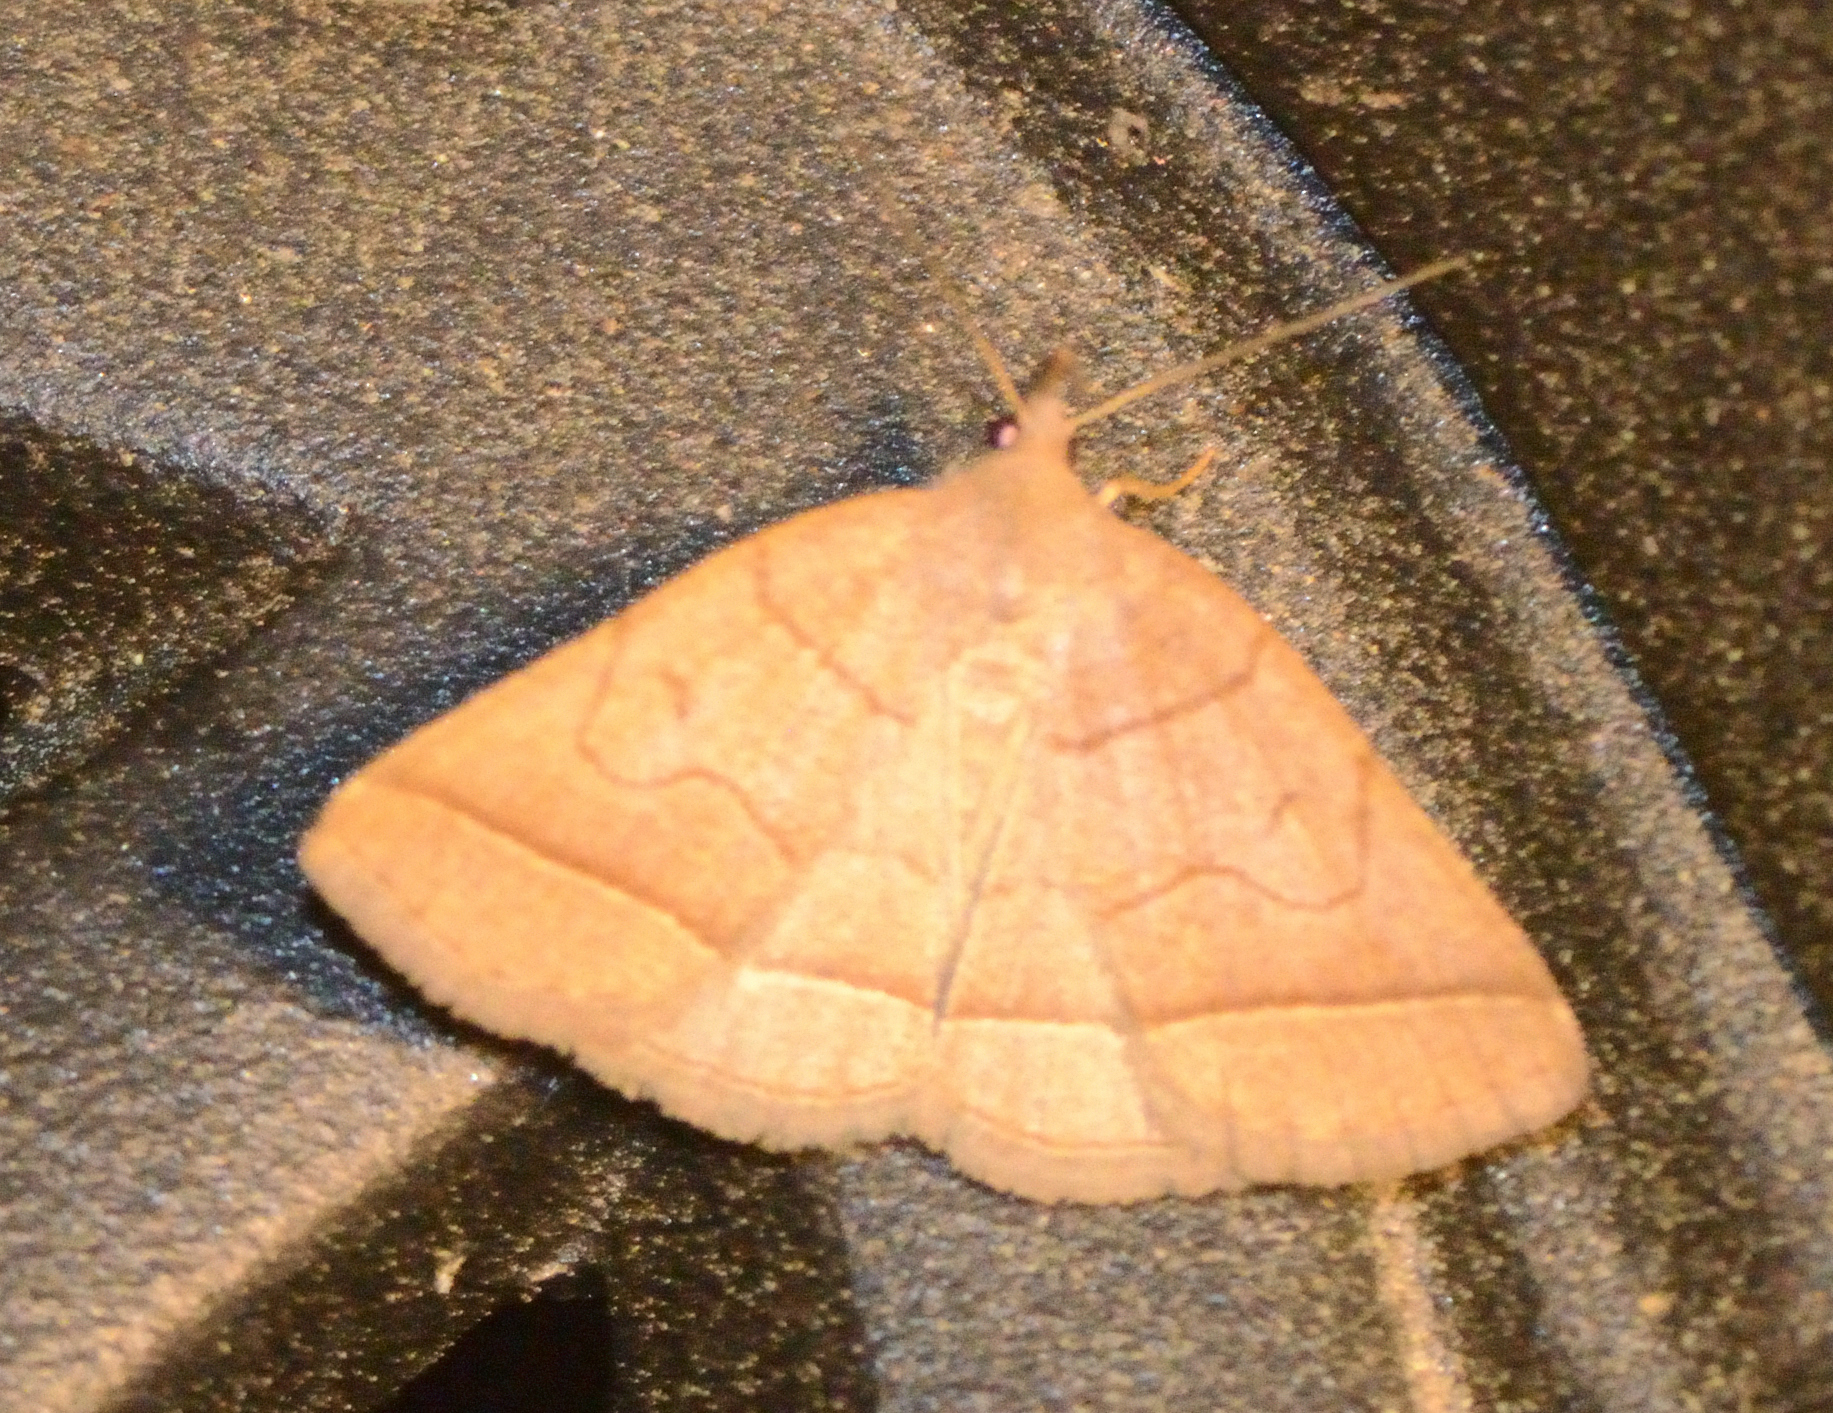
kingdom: Animalia
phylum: Arthropoda
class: Insecta
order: Lepidoptera
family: Erebidae
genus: Zanclognatha
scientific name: Zanclognatha cruralis
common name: Early fan-foot
